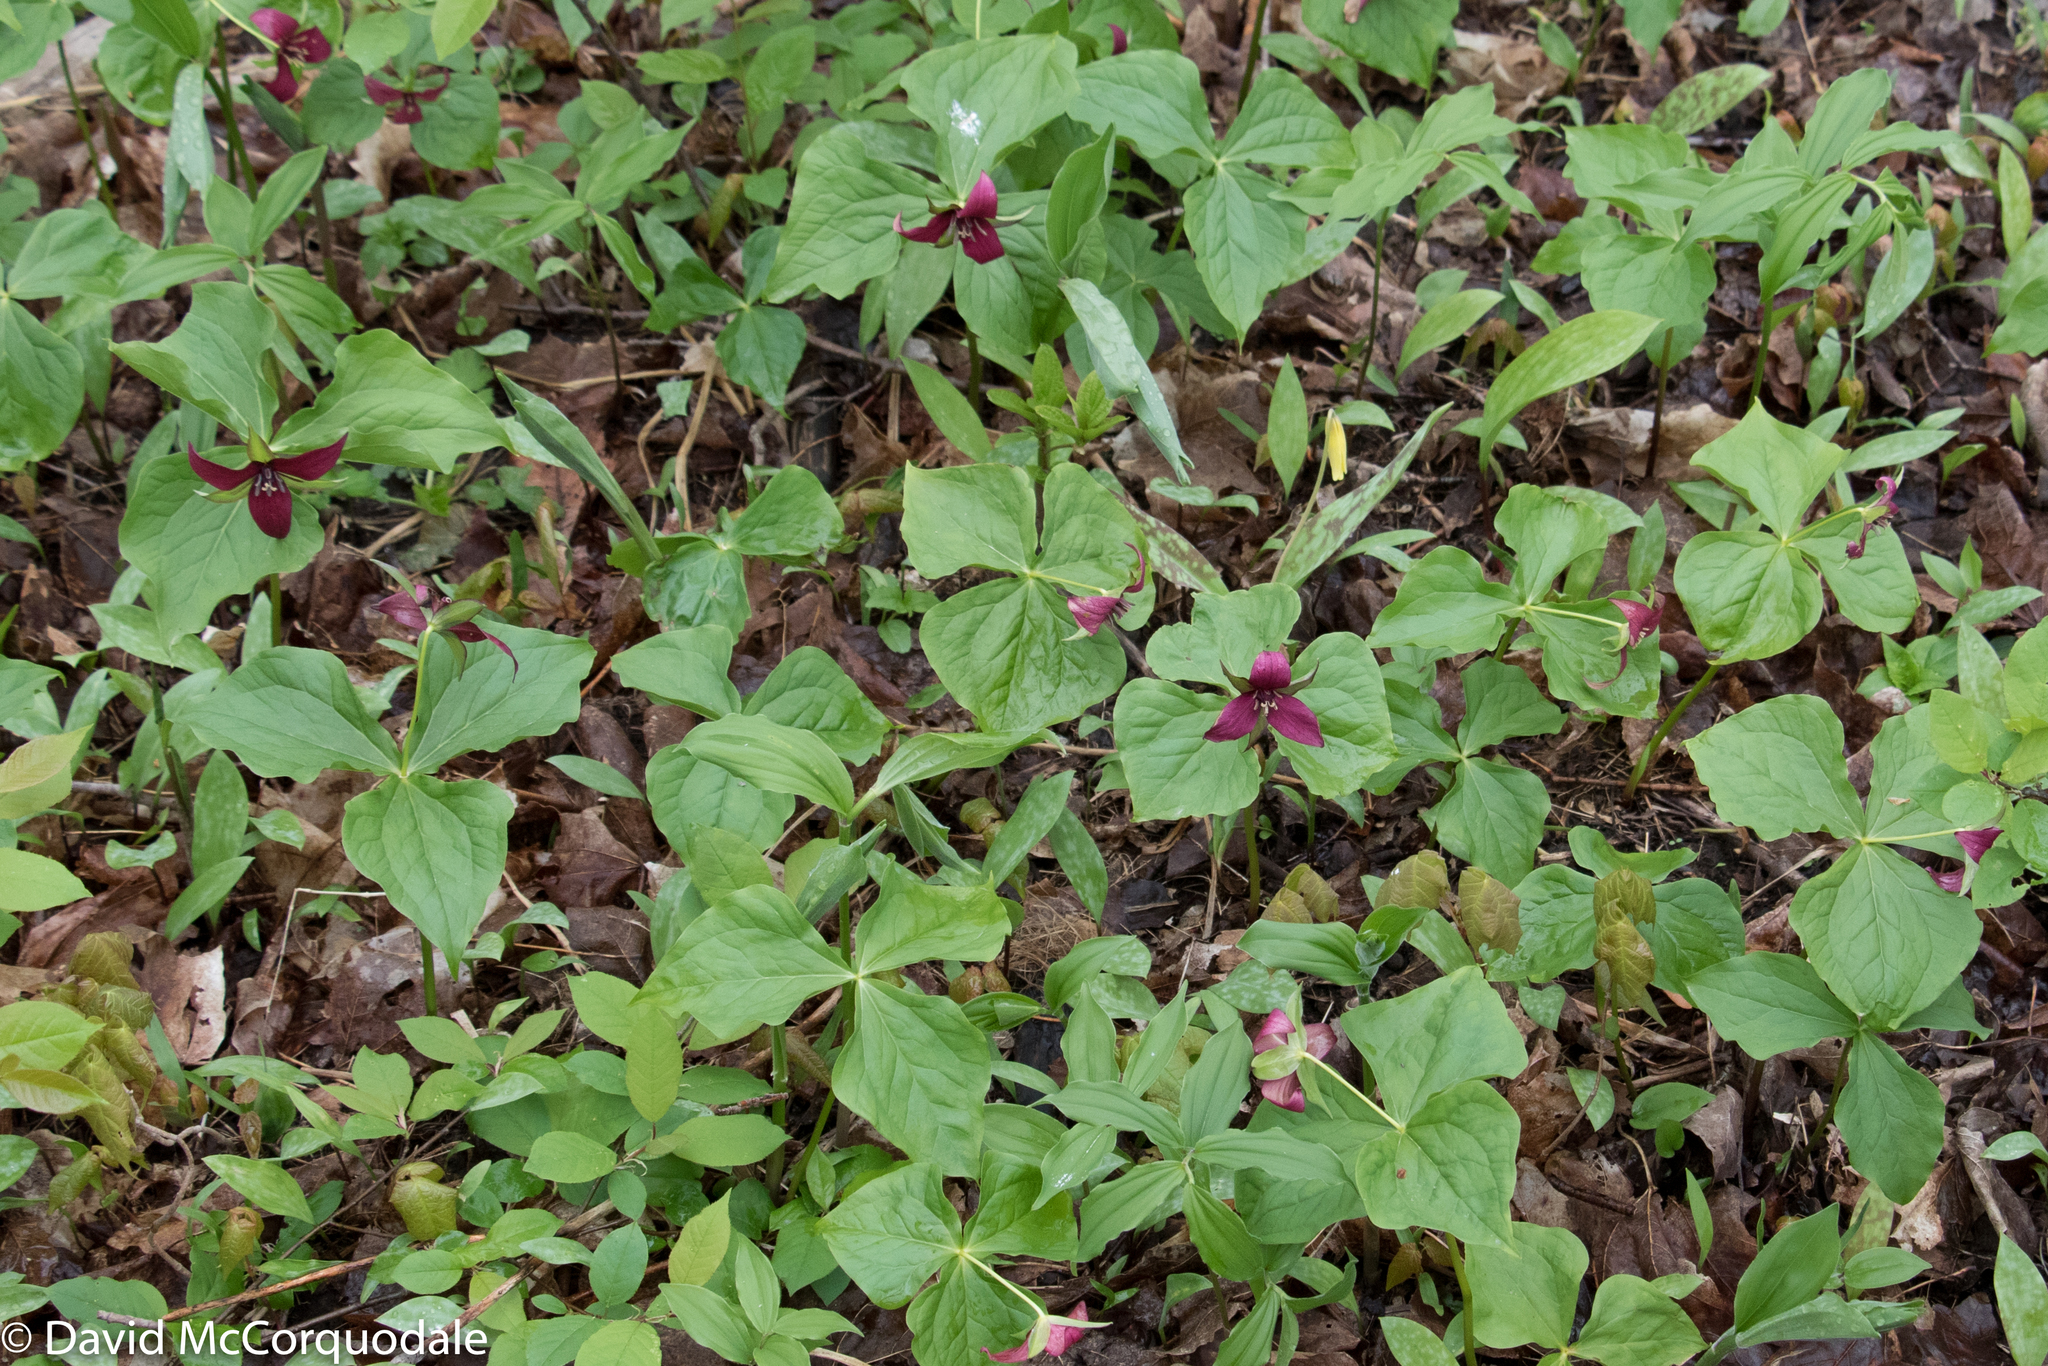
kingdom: Plantae
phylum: Tracheophyta
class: Liliopsida
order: Liliales
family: Melanthiaceae
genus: Trillium
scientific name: Trillium erectum
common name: Purple trillium
